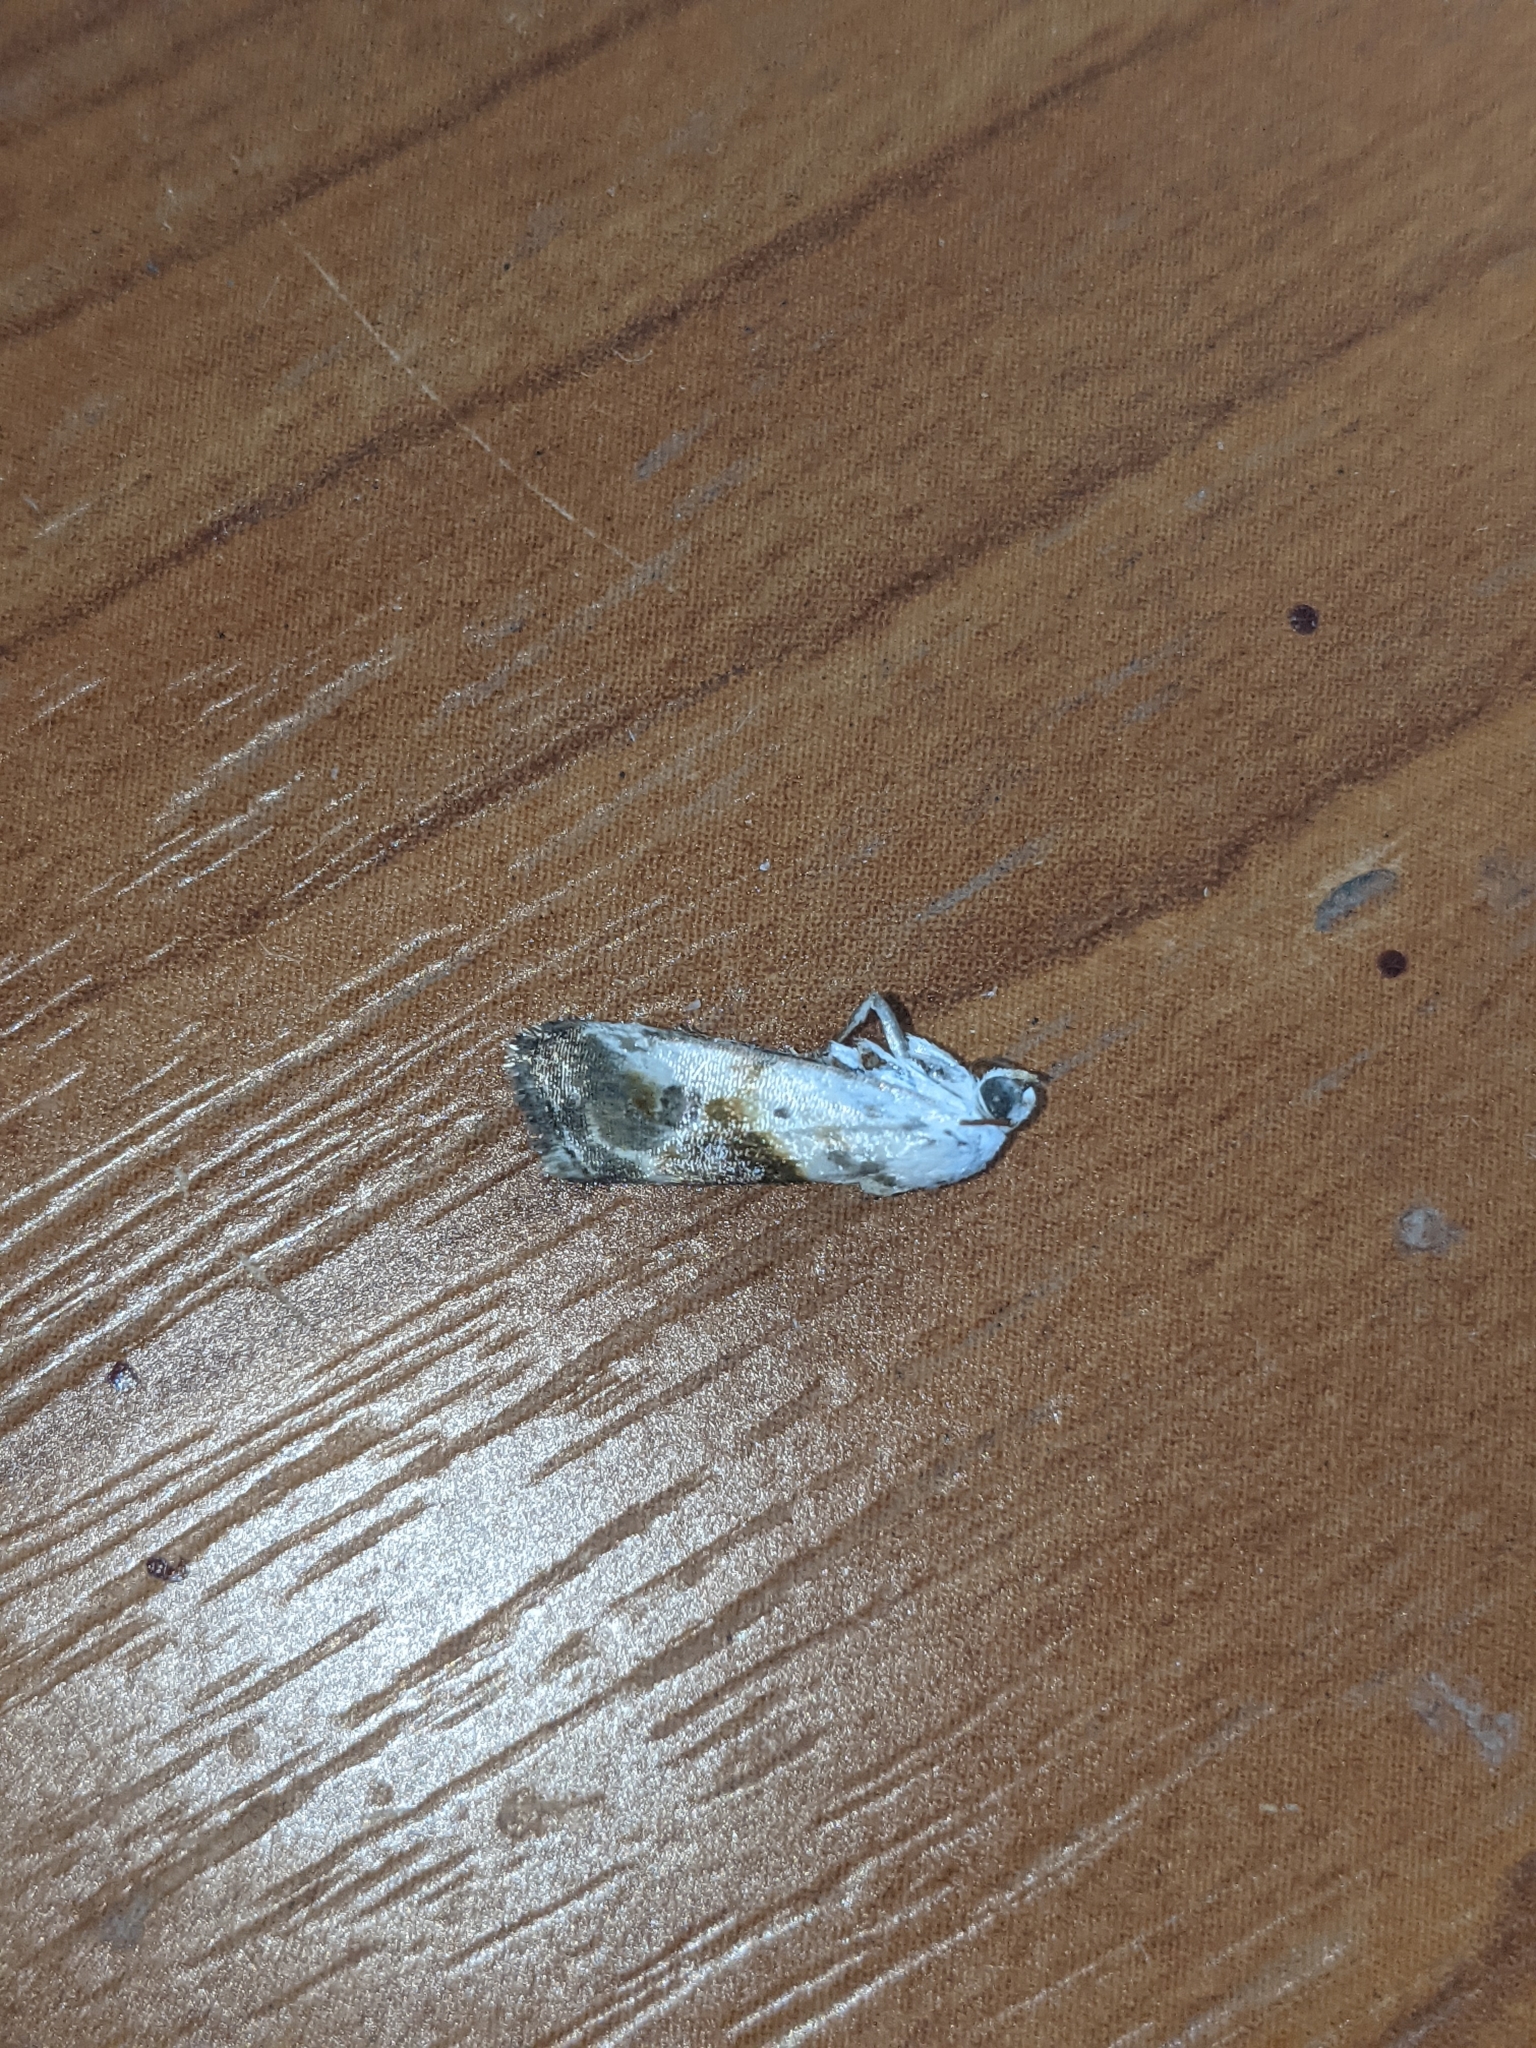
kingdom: Animalia
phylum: Arthropoda
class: Insecta
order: Lepidoptera
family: Noctuidae
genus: Acontia
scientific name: Acontia candefacta
